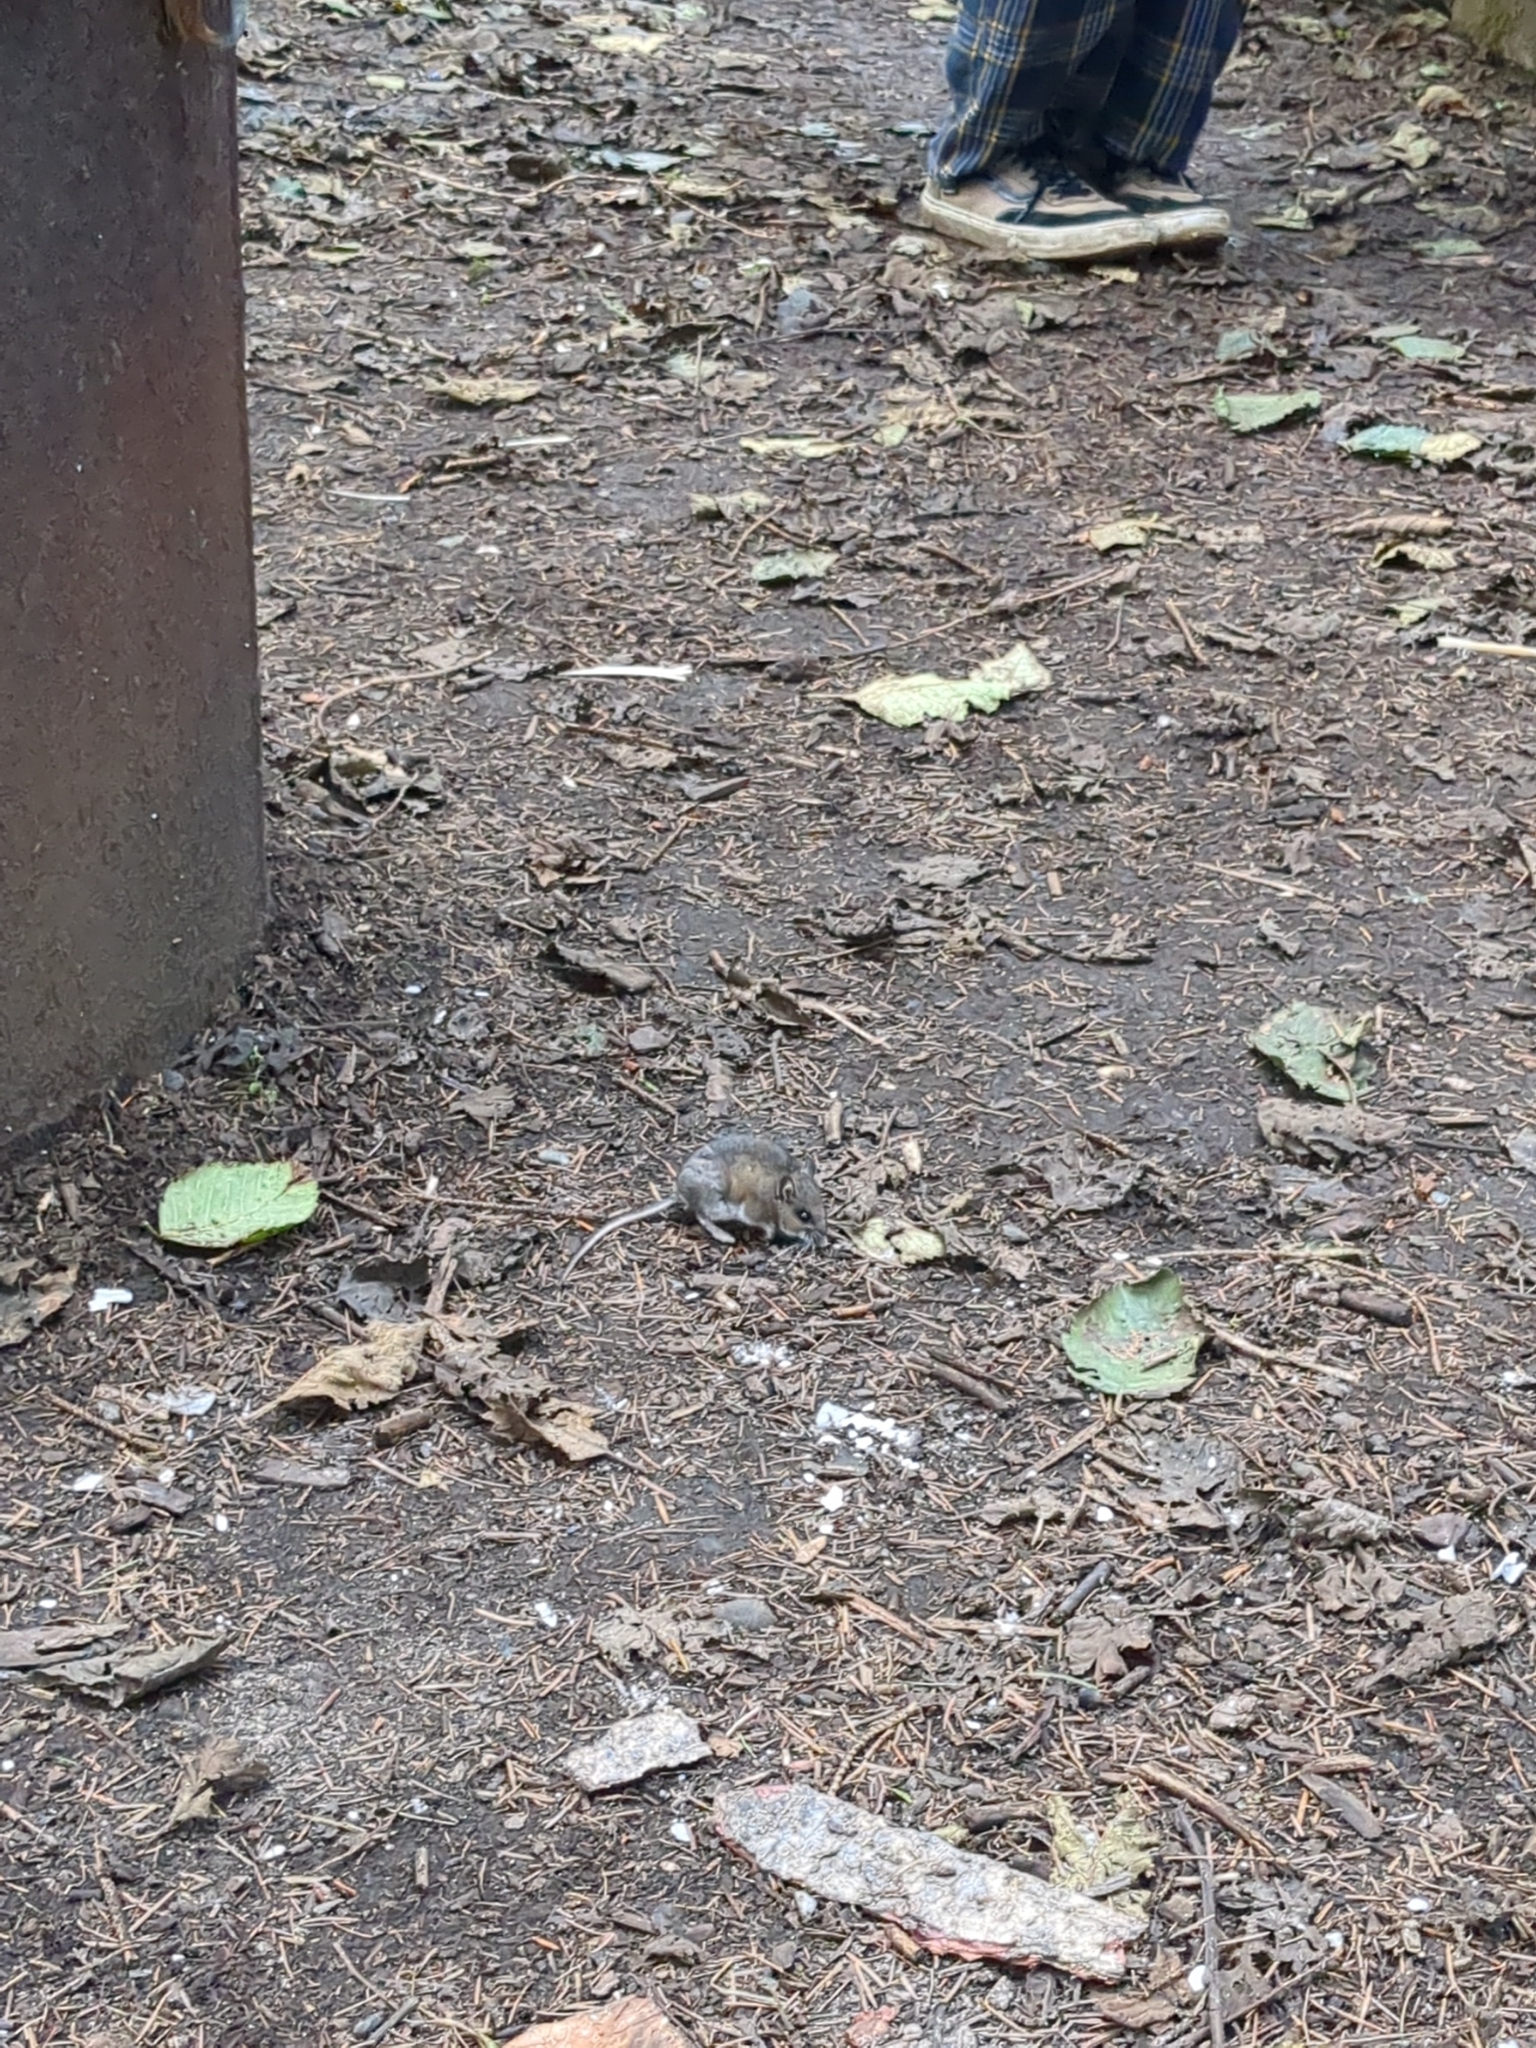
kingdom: Animalia
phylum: Chordata
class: Mammalia
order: Rodentia
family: Cricetidae
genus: Peromyscus
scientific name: Peromyscus maniculatus
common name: Deer mouse
